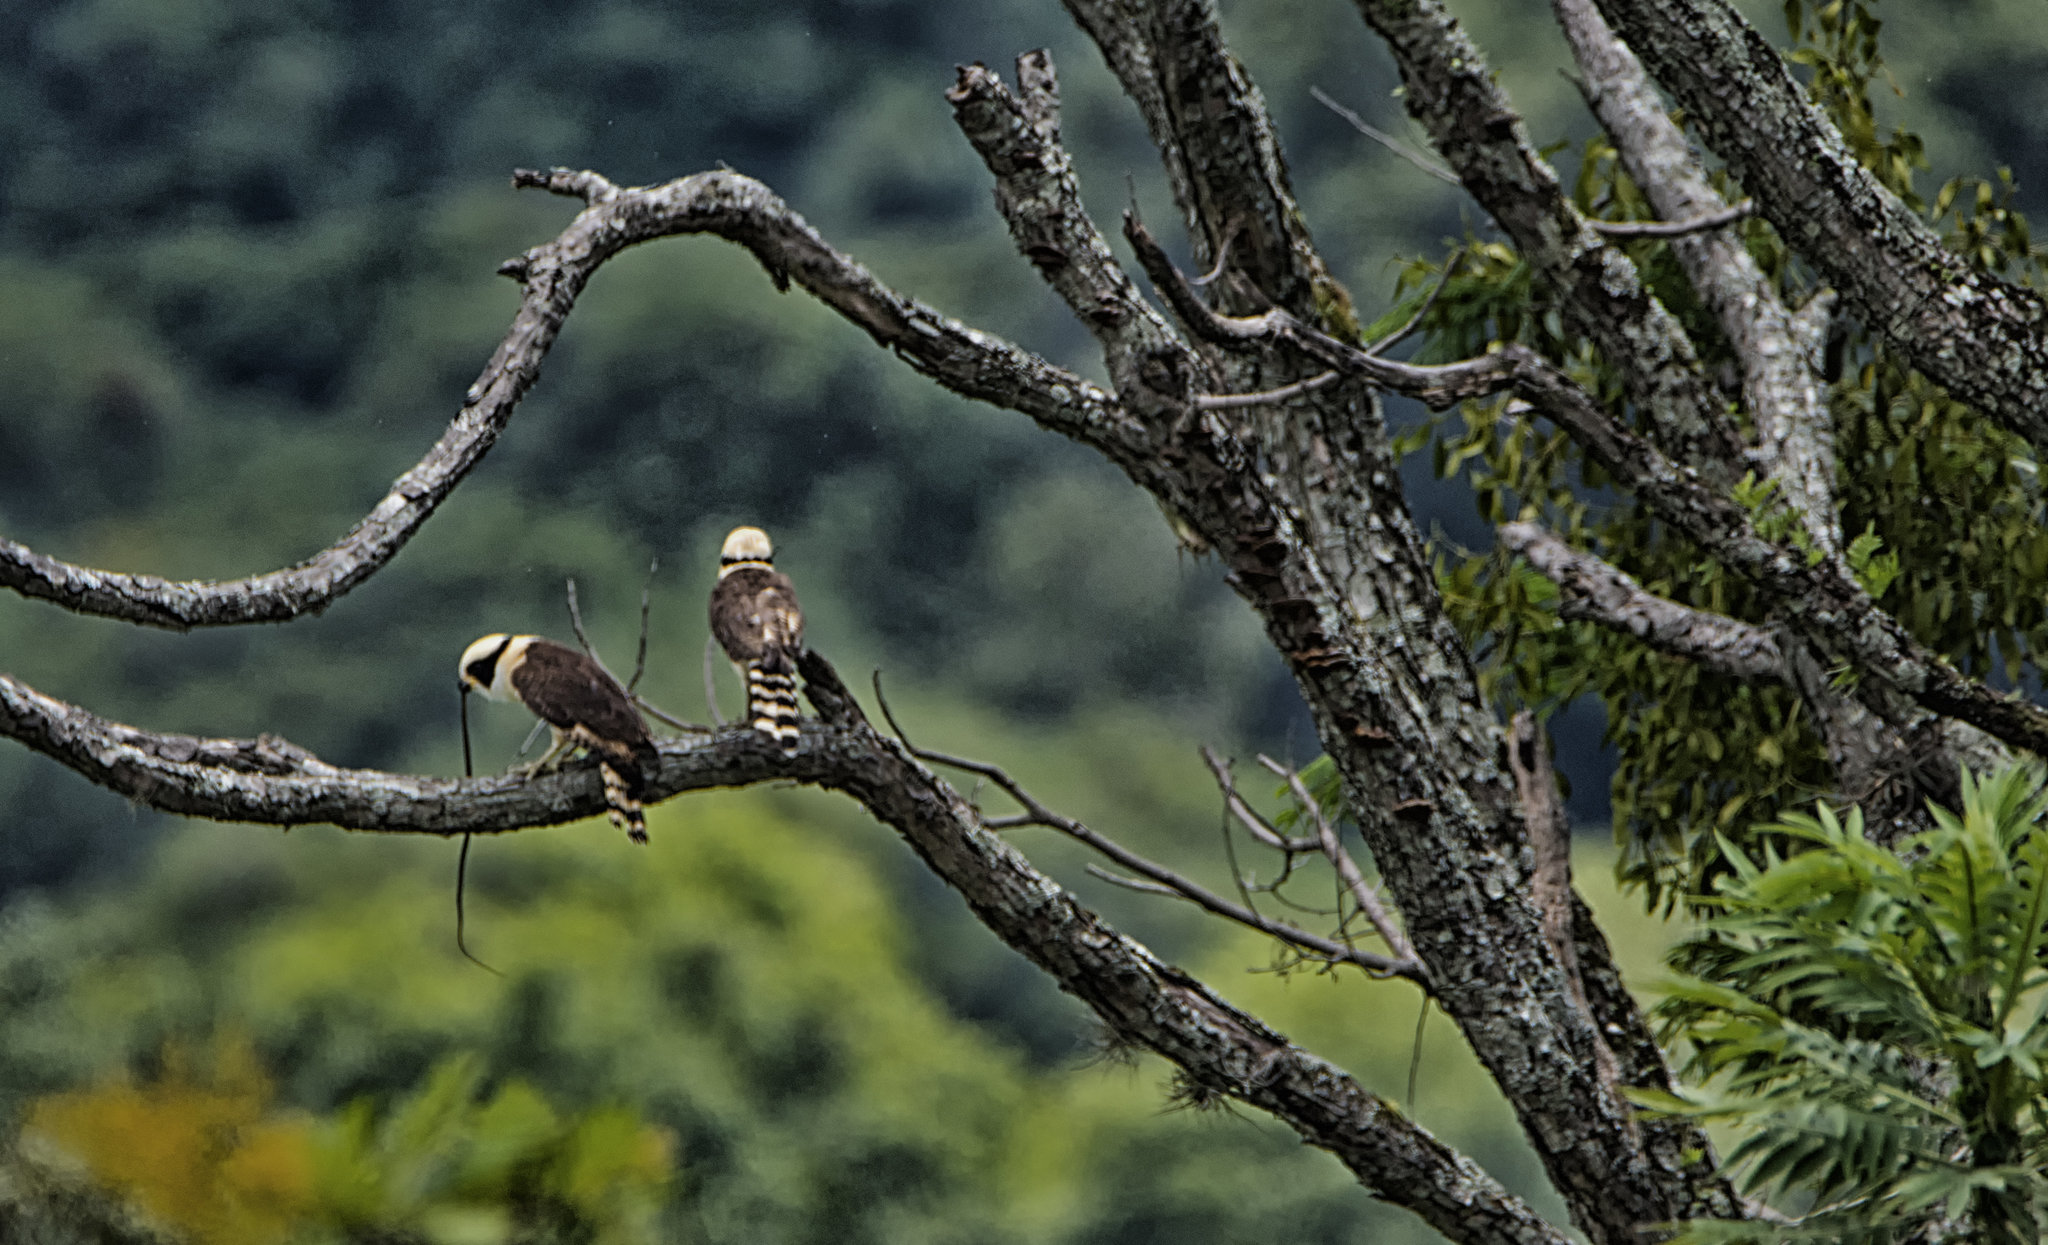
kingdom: Animalia
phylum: Chordata
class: Aves
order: Falconiformes
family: Falconidae
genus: Herpetotheres
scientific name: Herpetotheres cachinnans
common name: Laughing falcon
